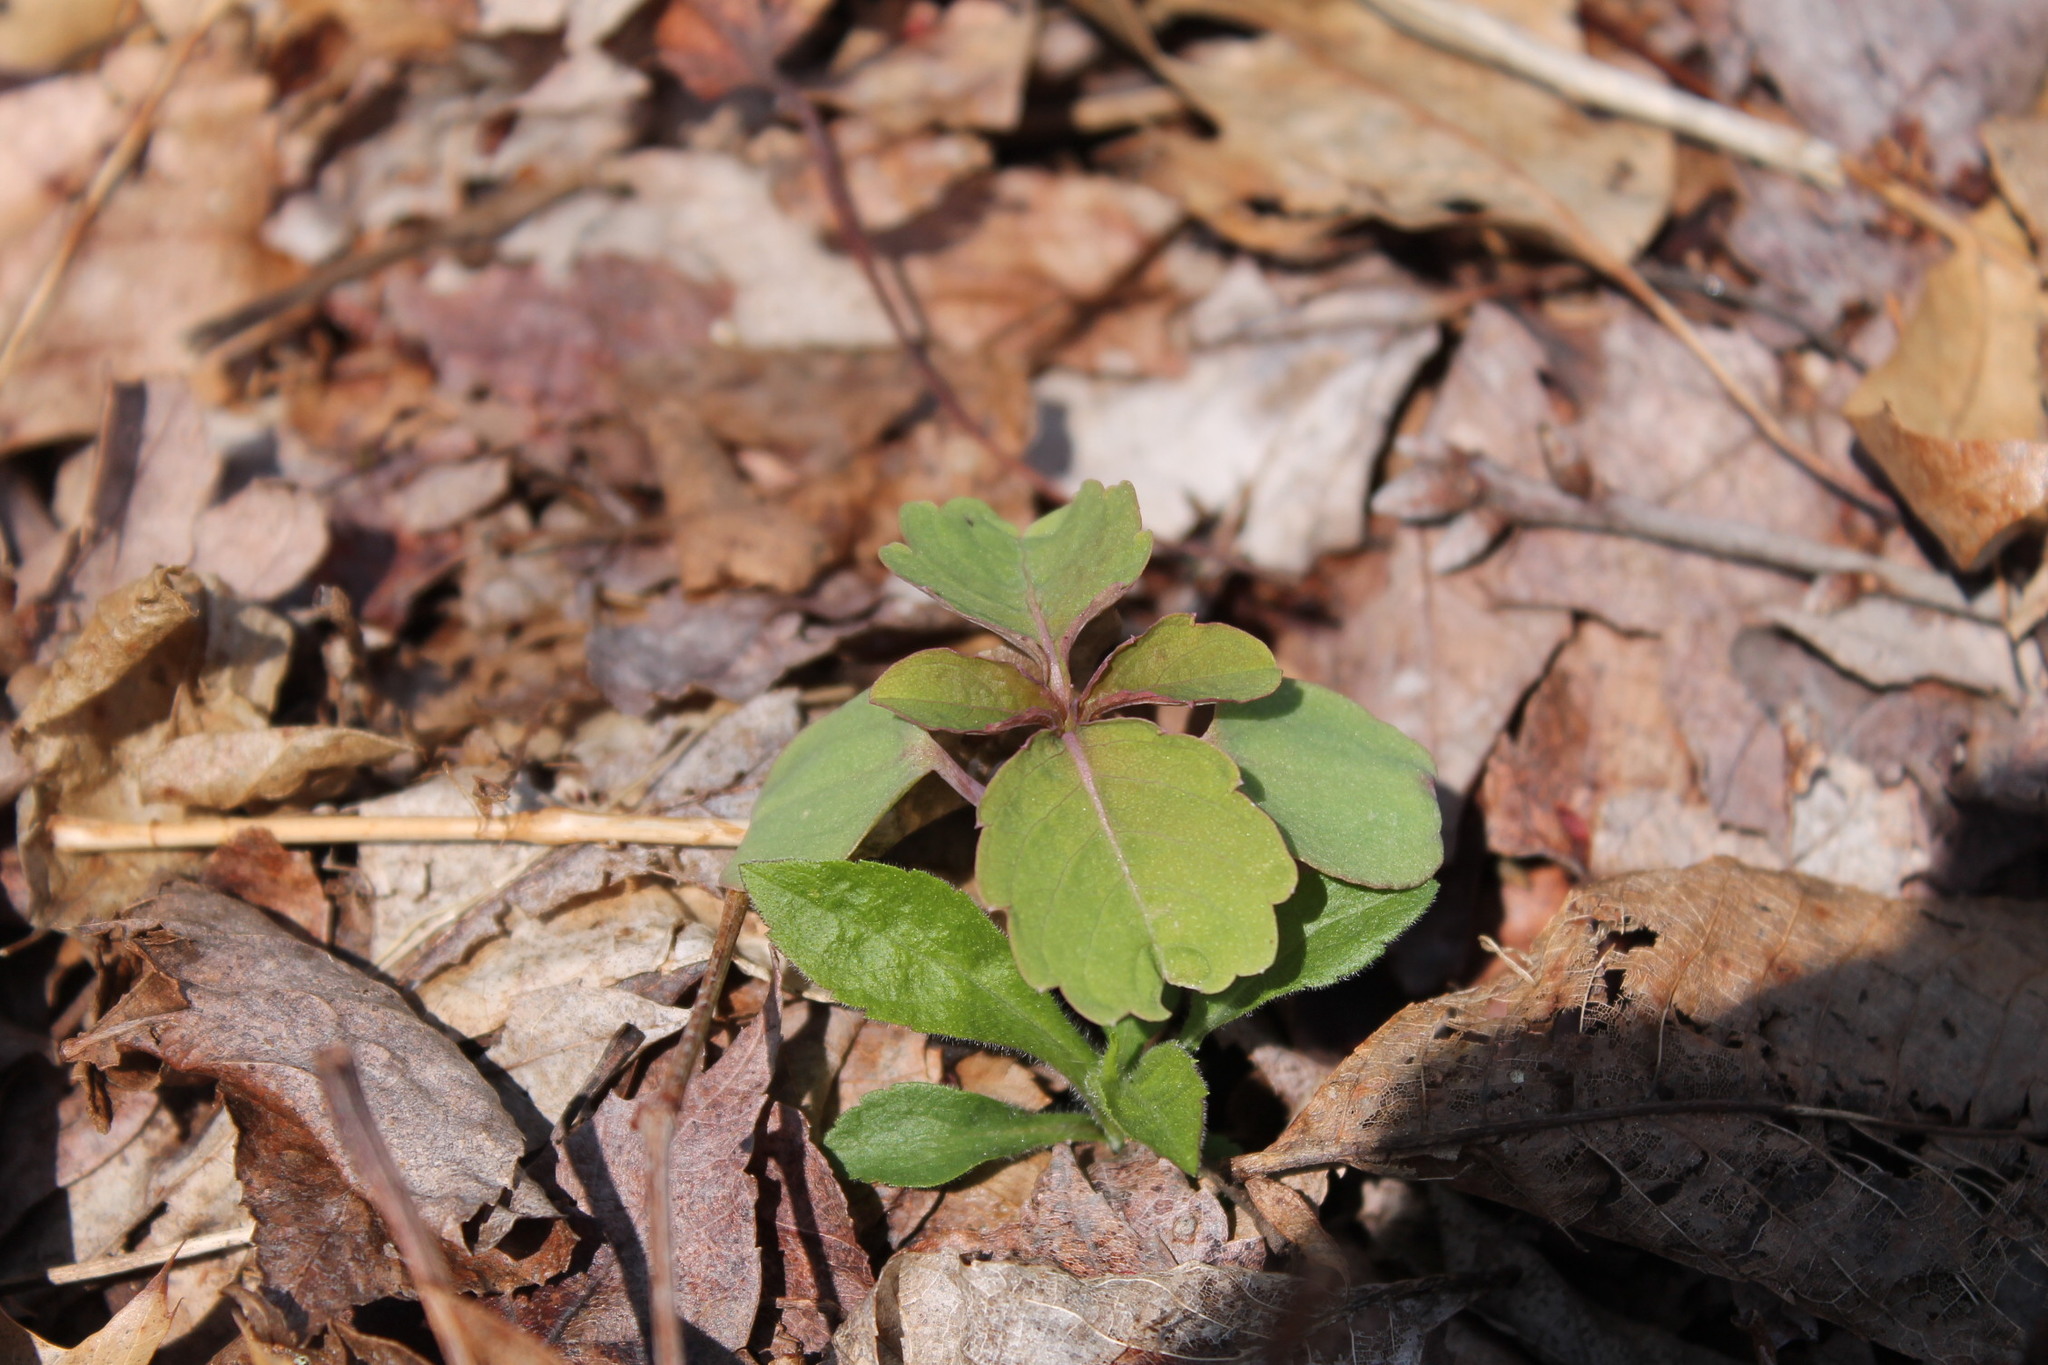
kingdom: Plantae
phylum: Tracheophyta
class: Magnoliopsida
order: Ericales
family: Balsaminaceae
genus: Impatiens
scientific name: Impatiens capensis
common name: Orange balsam
